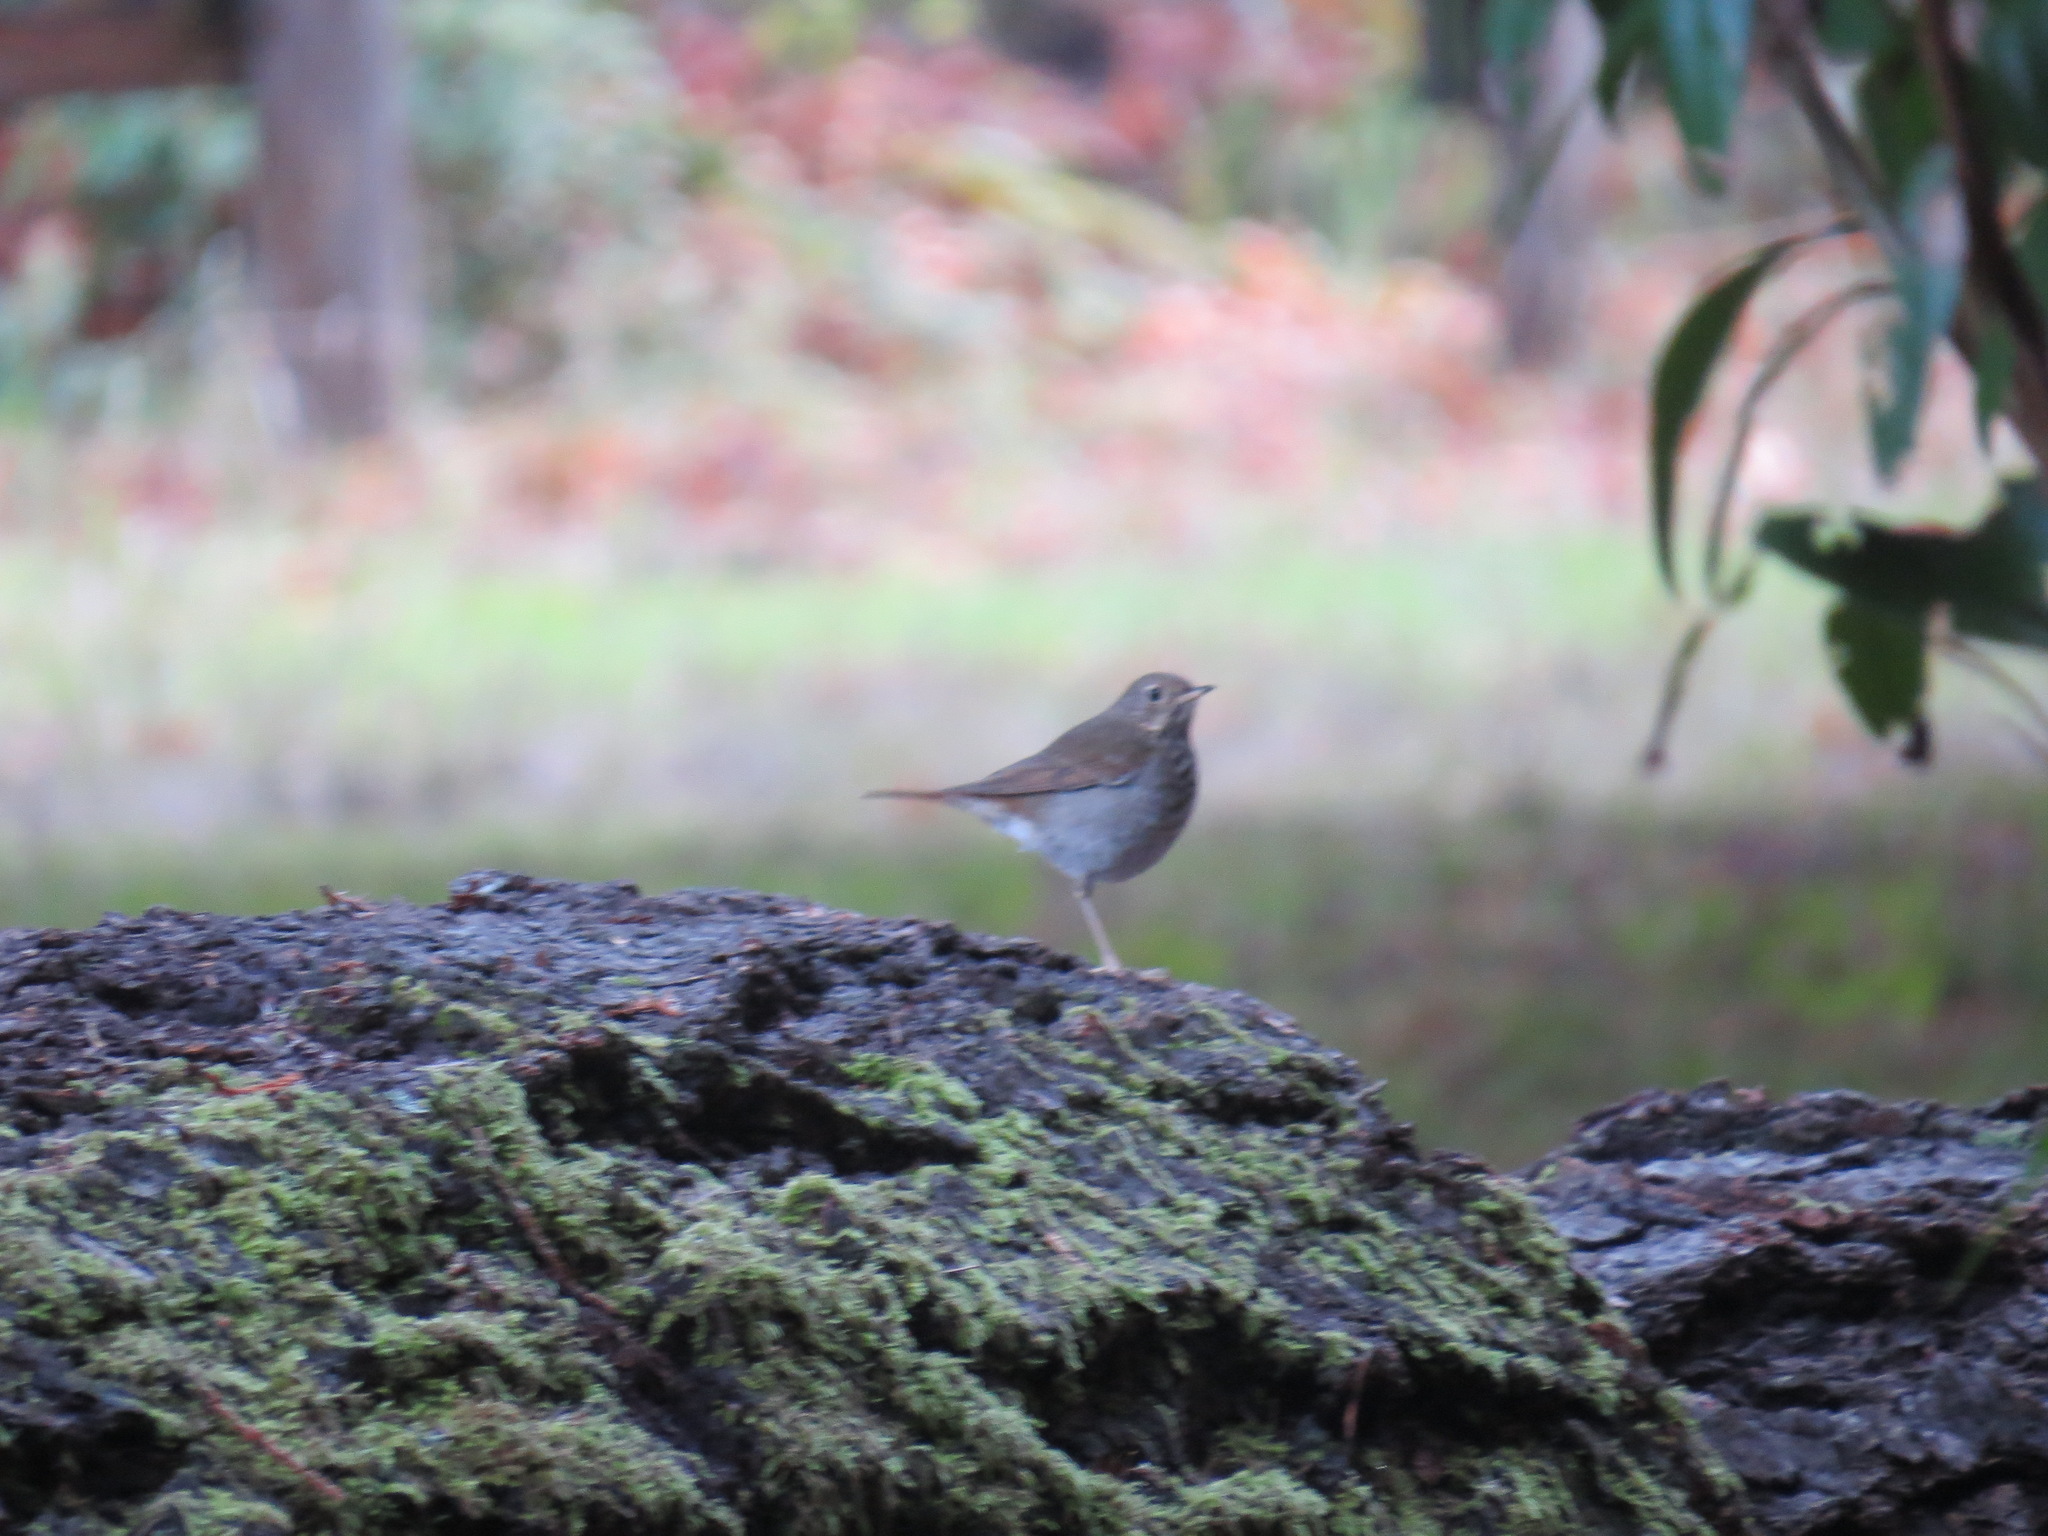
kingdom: Animalia
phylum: Chordata
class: Aves
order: Passeriformes
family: Turdidae
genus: Catharus
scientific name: Catharus guttatus
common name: Hermit thrush
